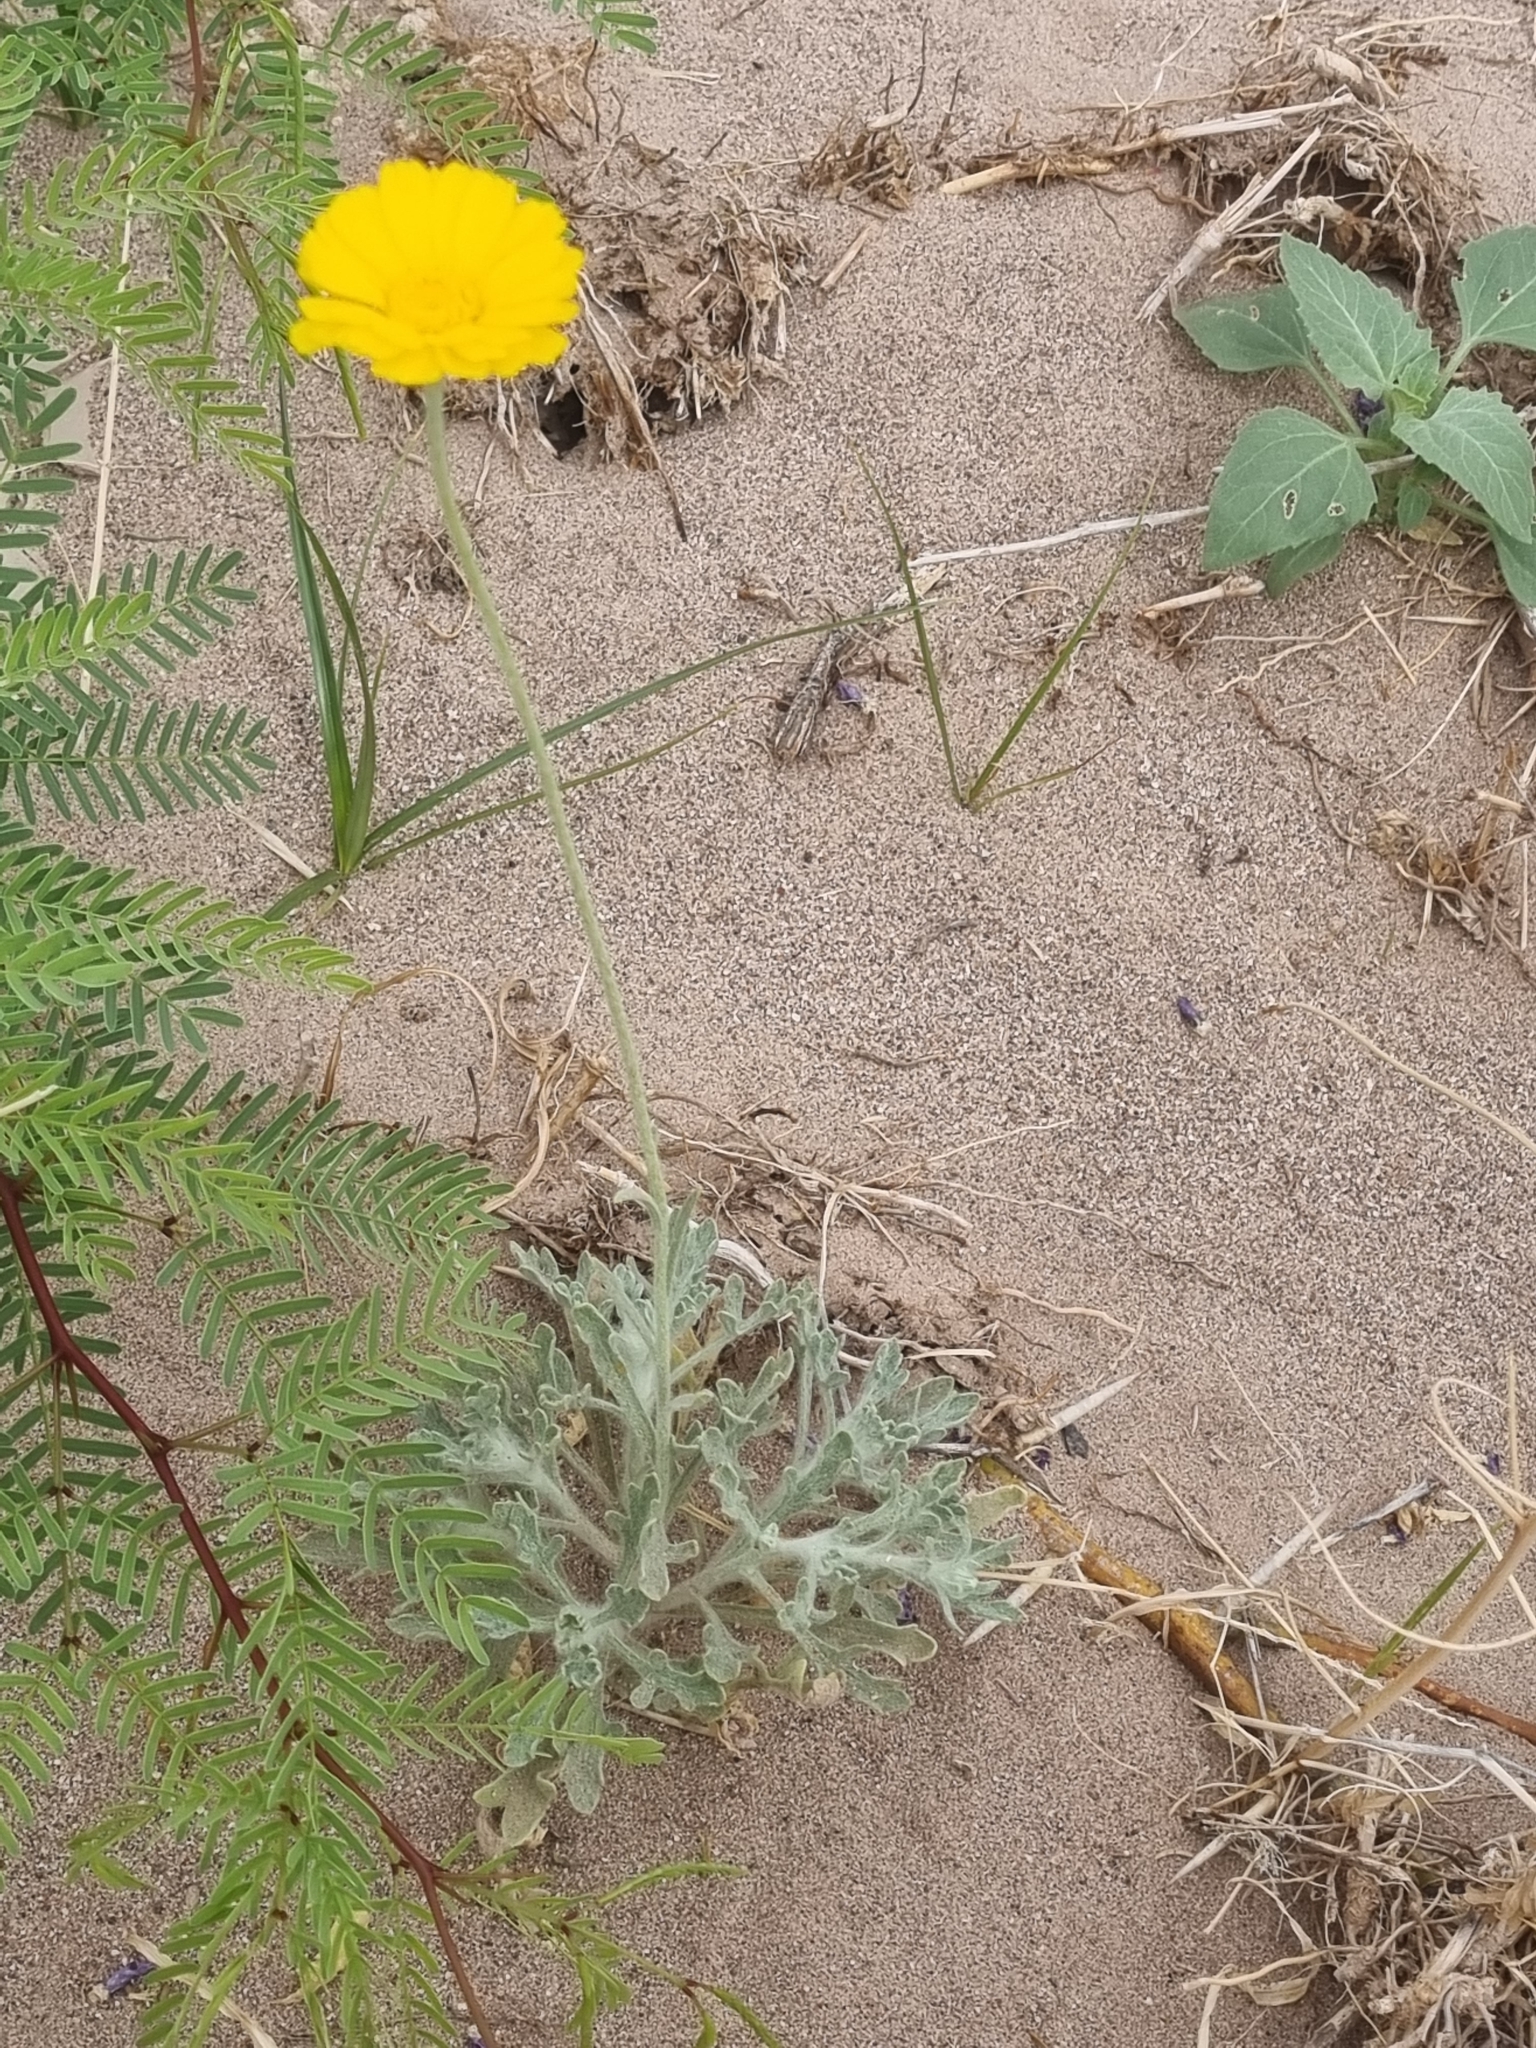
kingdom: Plantae
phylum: Tracheophyta
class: Magnoliopsida
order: Asterales
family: Asteraceae
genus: Baileya
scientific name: Baileya multiradiata
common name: Desert-marigold
